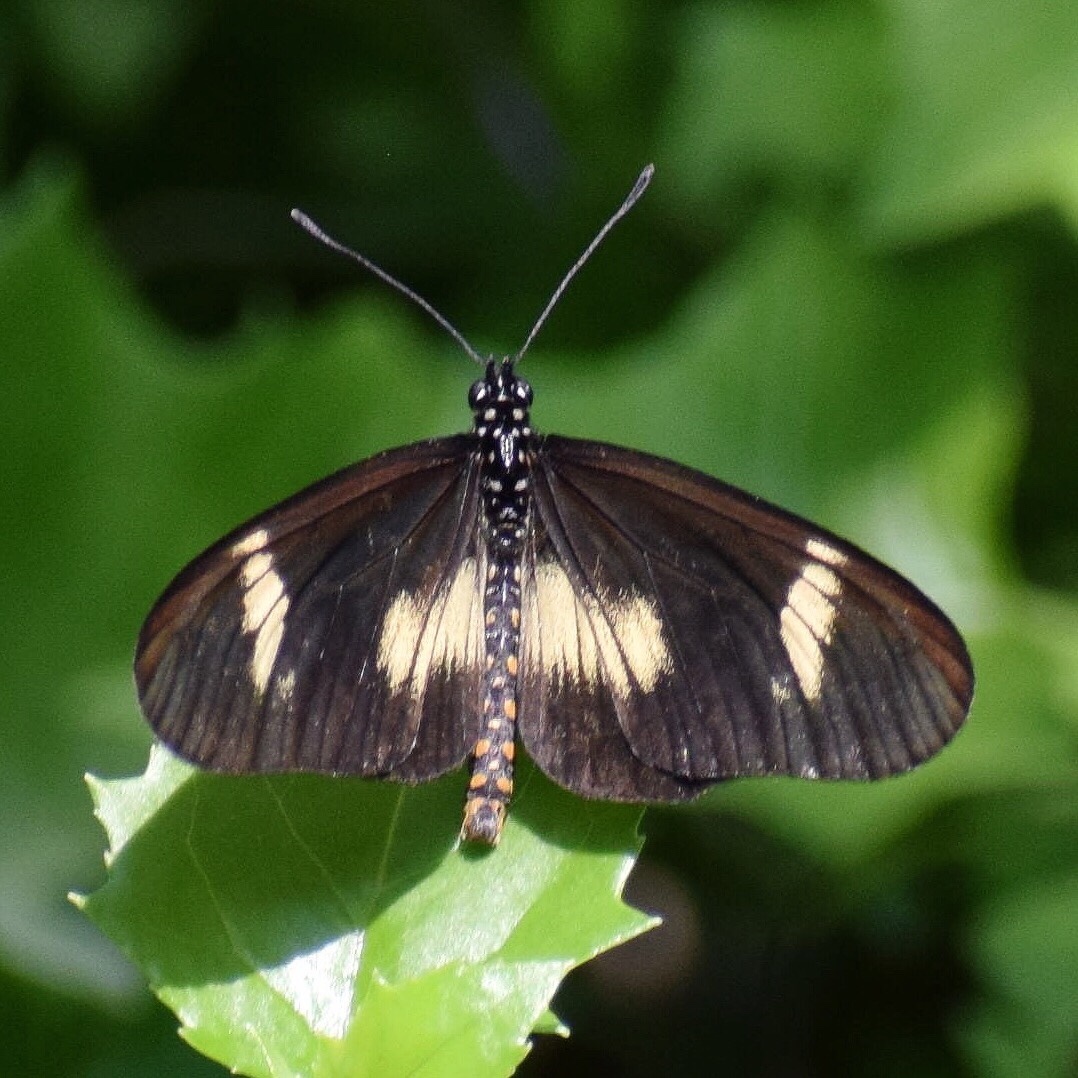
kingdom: Animalia
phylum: Arthropoda
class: Insecta
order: Lepidoptera
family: Nymphalidae
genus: Acraea
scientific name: Acraea esebria
